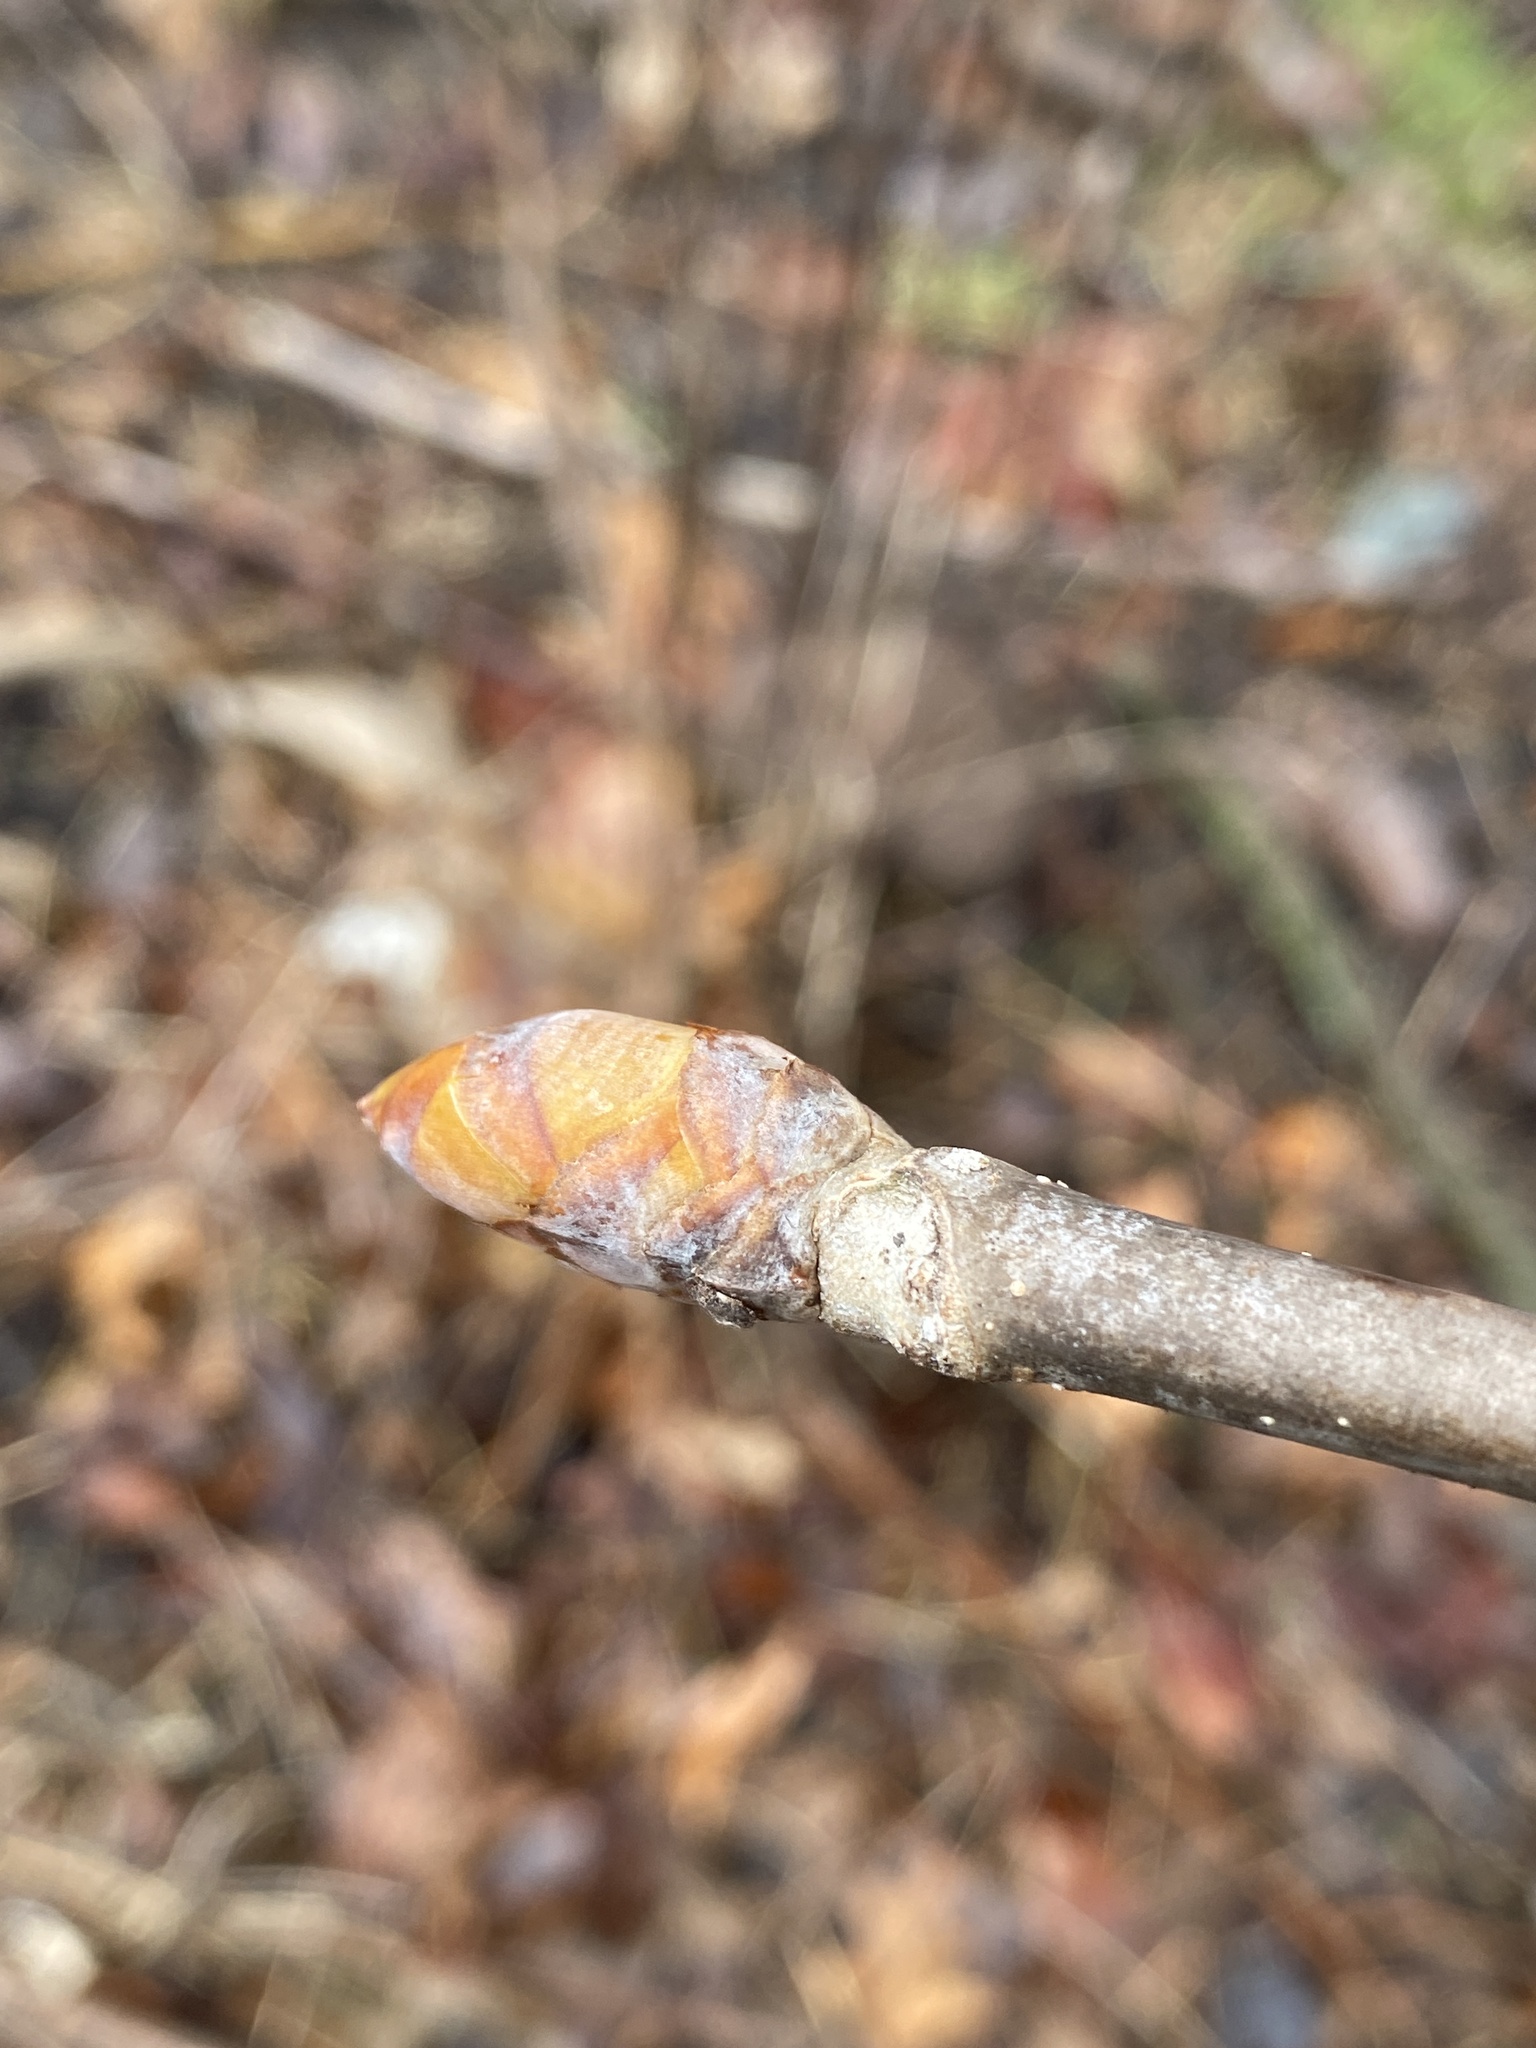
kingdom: Plantae
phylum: Tracheophyta
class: Magnoliopsida
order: Sapindales
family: Sapindaceae
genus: Aesculus
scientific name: Aesculus flava
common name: Yellow buckeye
